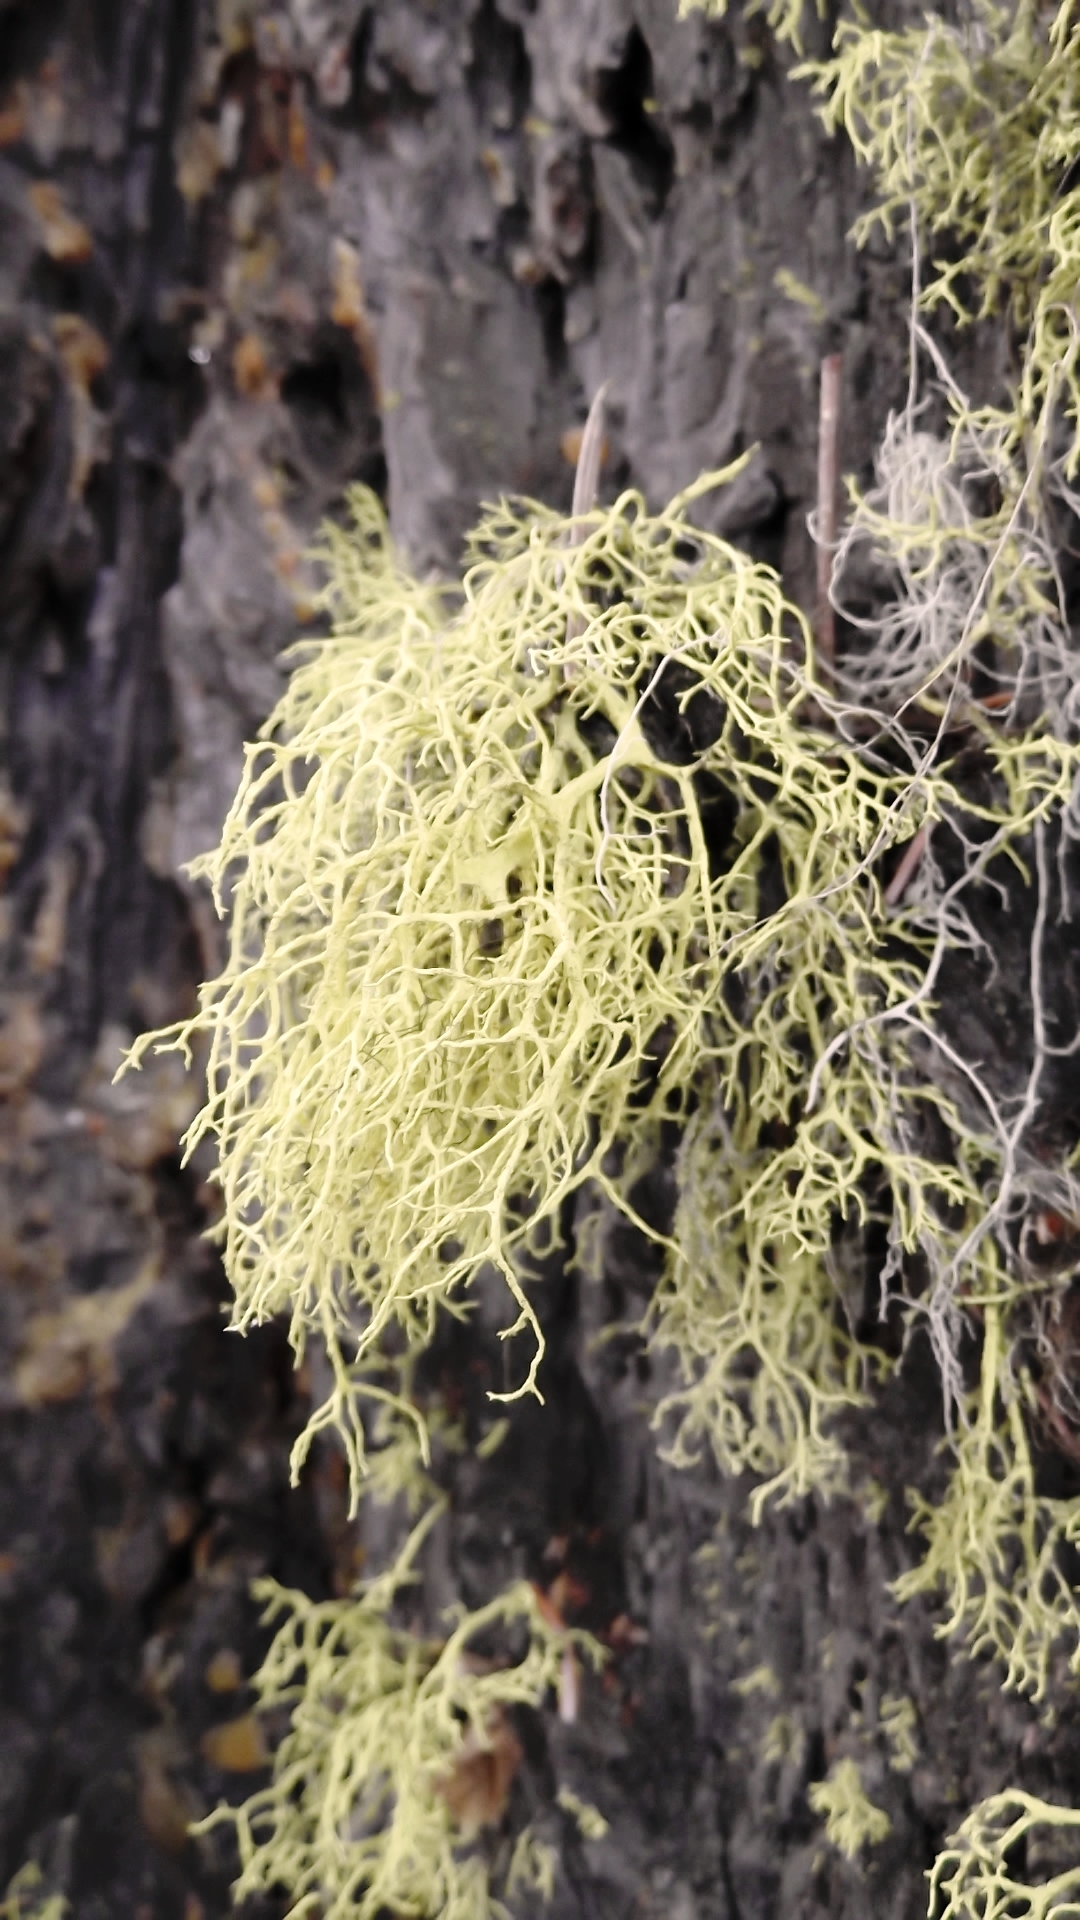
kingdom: Fungi
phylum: Ascomycota
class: Lecanoromycetes
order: Lecanorales
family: Parmeliaceae
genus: Letharia
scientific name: Letharia vulpina
